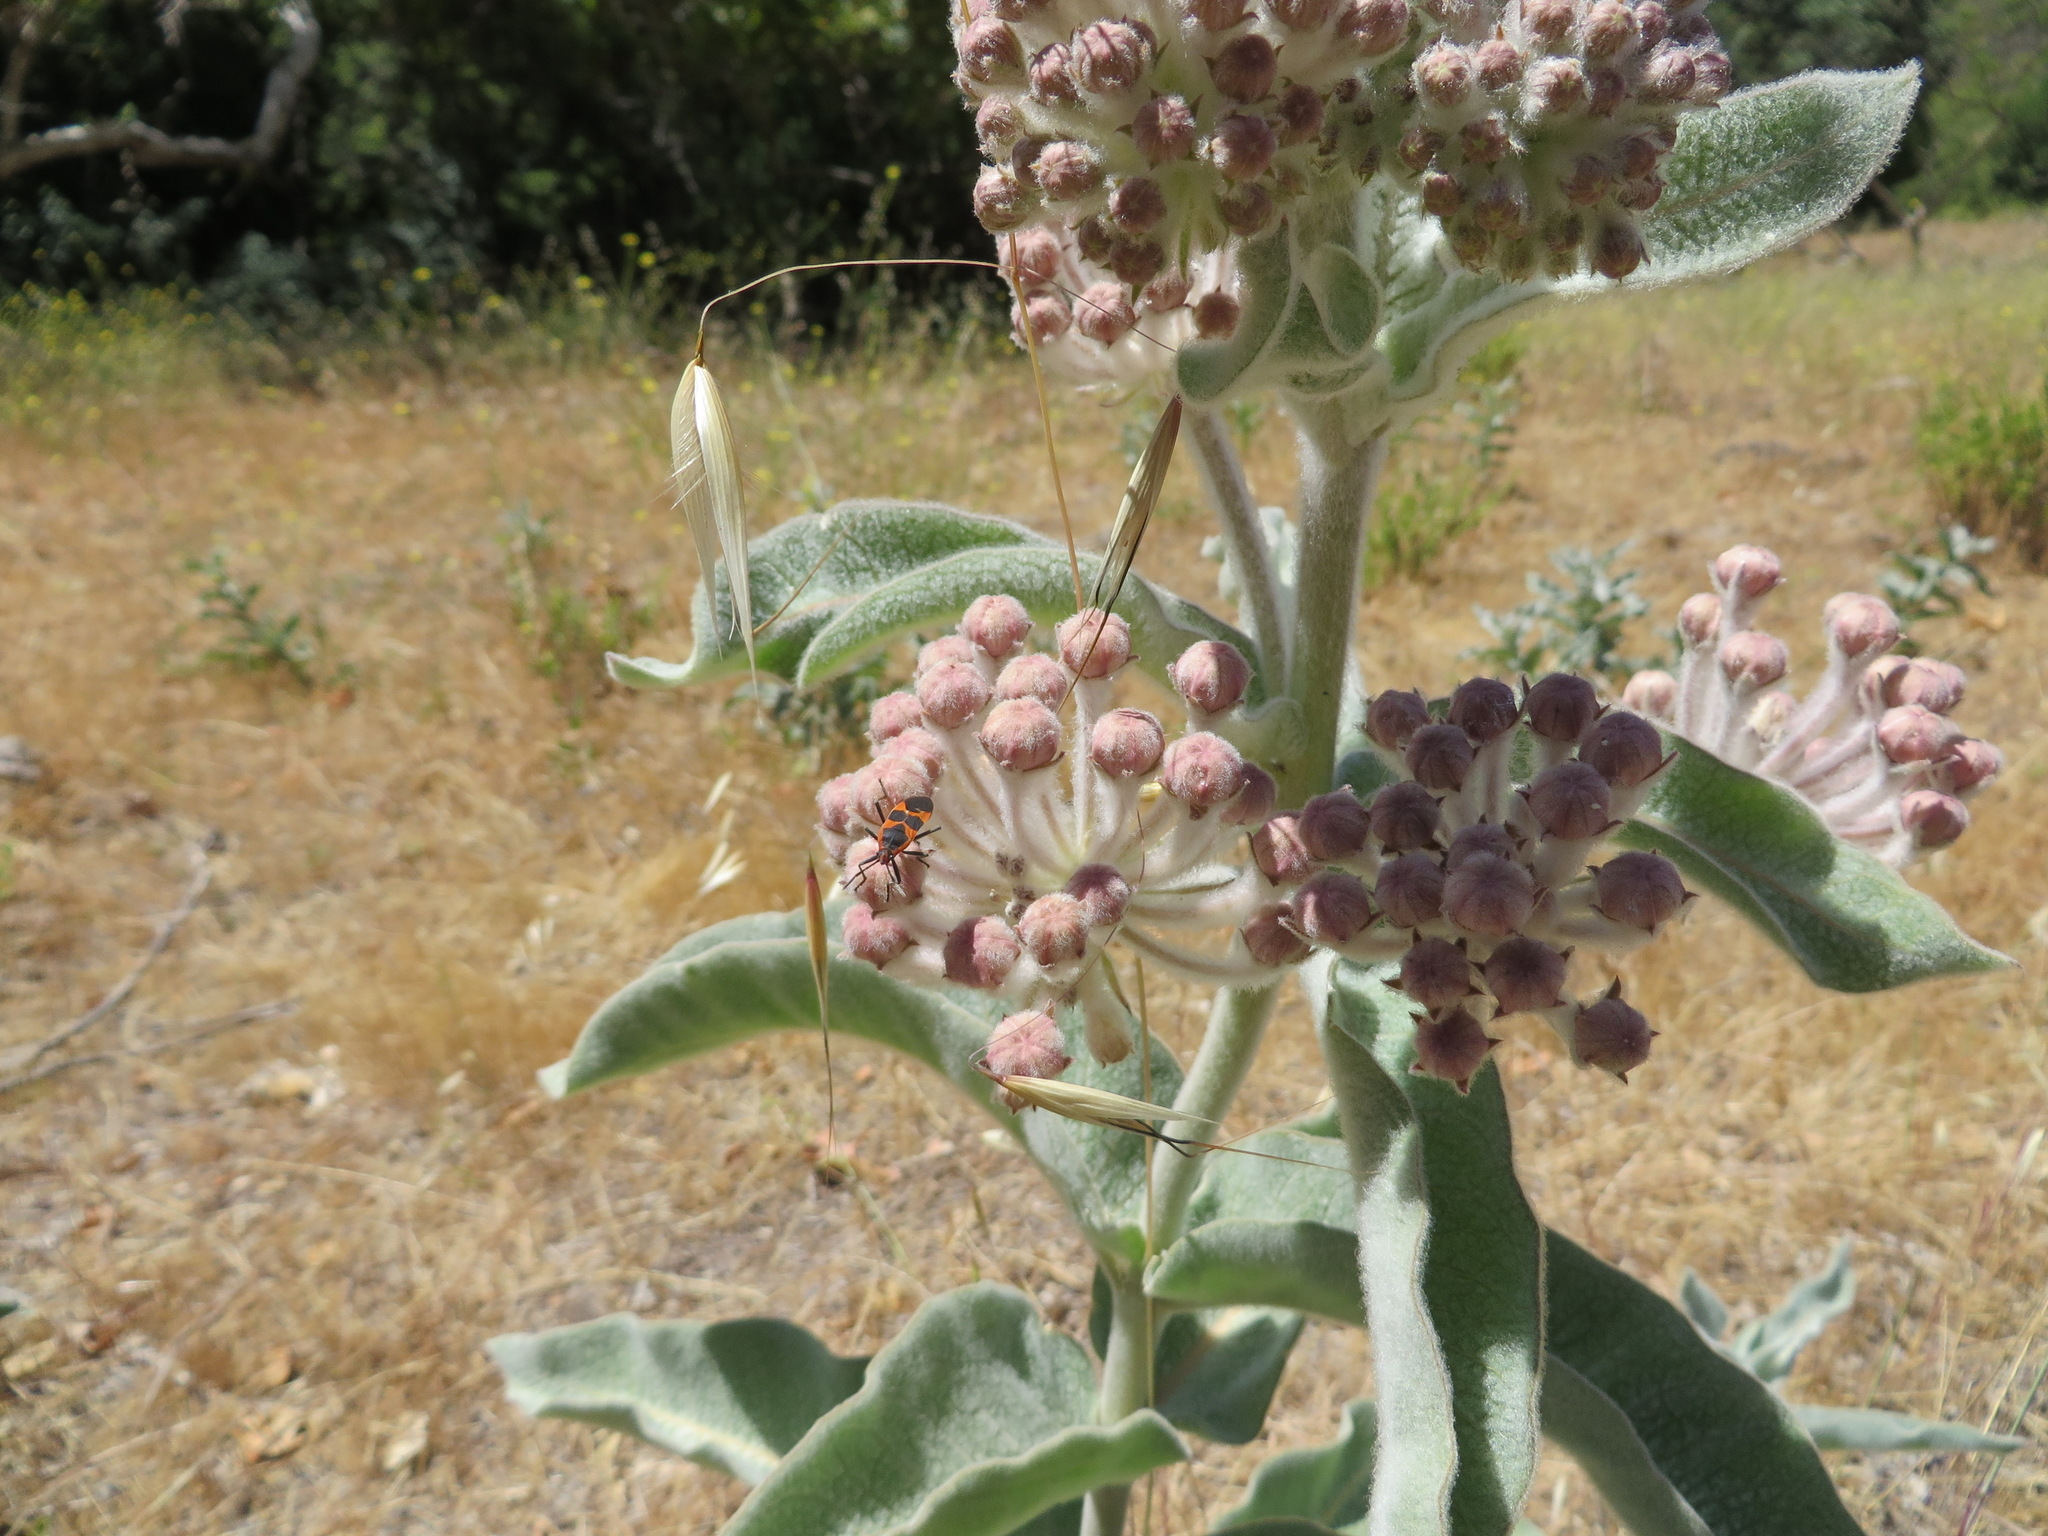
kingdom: Animalia
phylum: Arthropoda
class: Insecta
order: Hemiptera
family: Lygaeidae
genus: Oncopeltus
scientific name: Oncopeltus fasciatus
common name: Large milkweed bug
